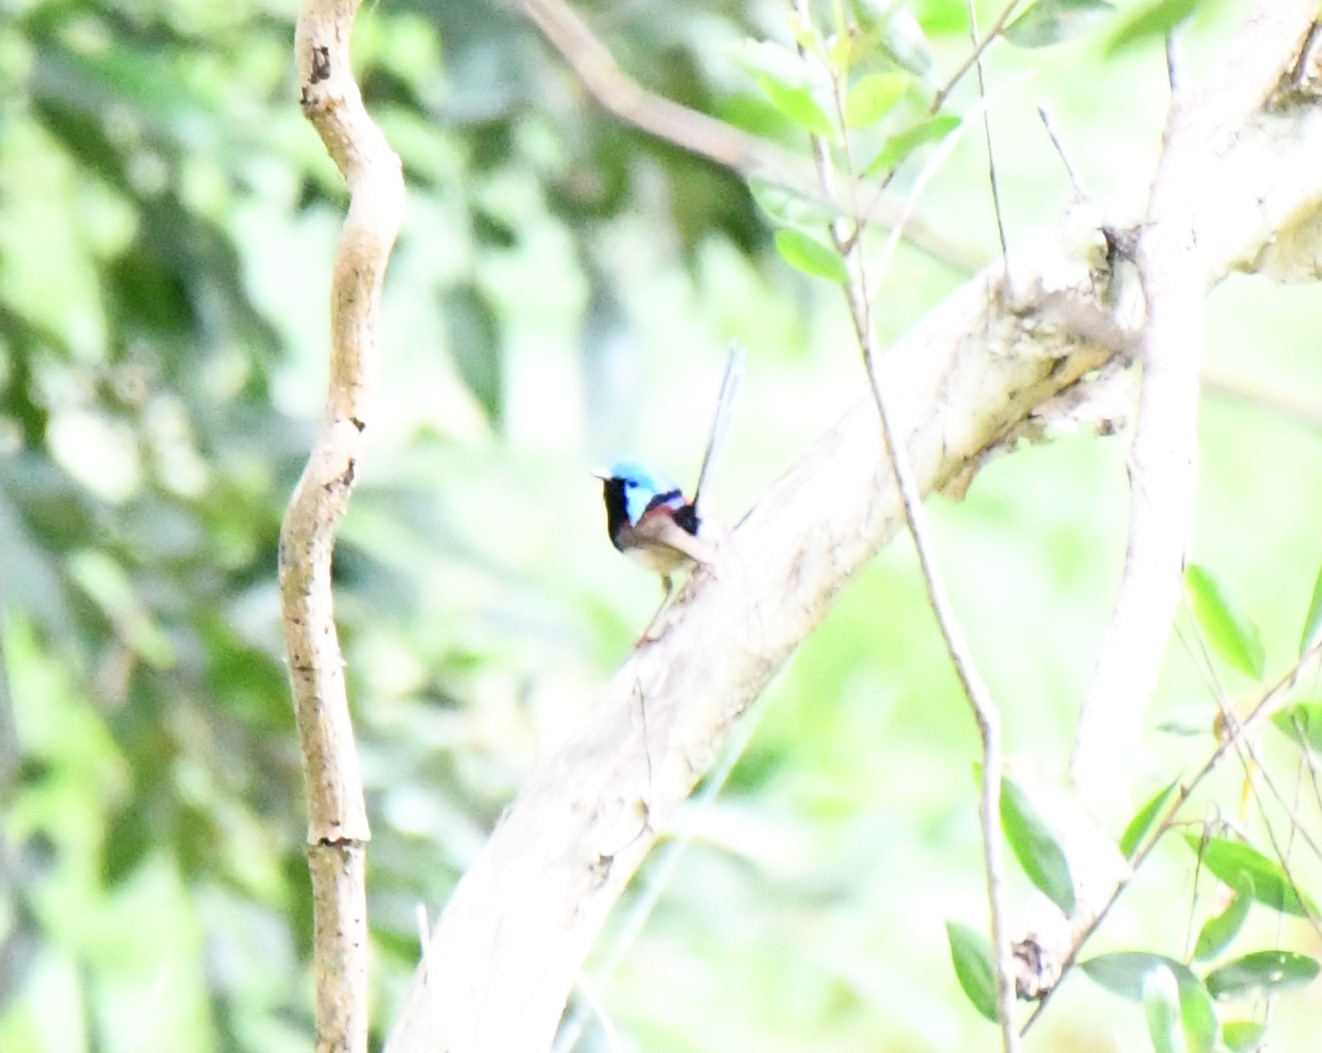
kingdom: Animalia
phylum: Chordata
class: Aves
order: Passeriformes
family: Maluridae
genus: Malurus
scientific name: Malurus lamberti
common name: Variegated fairywren
